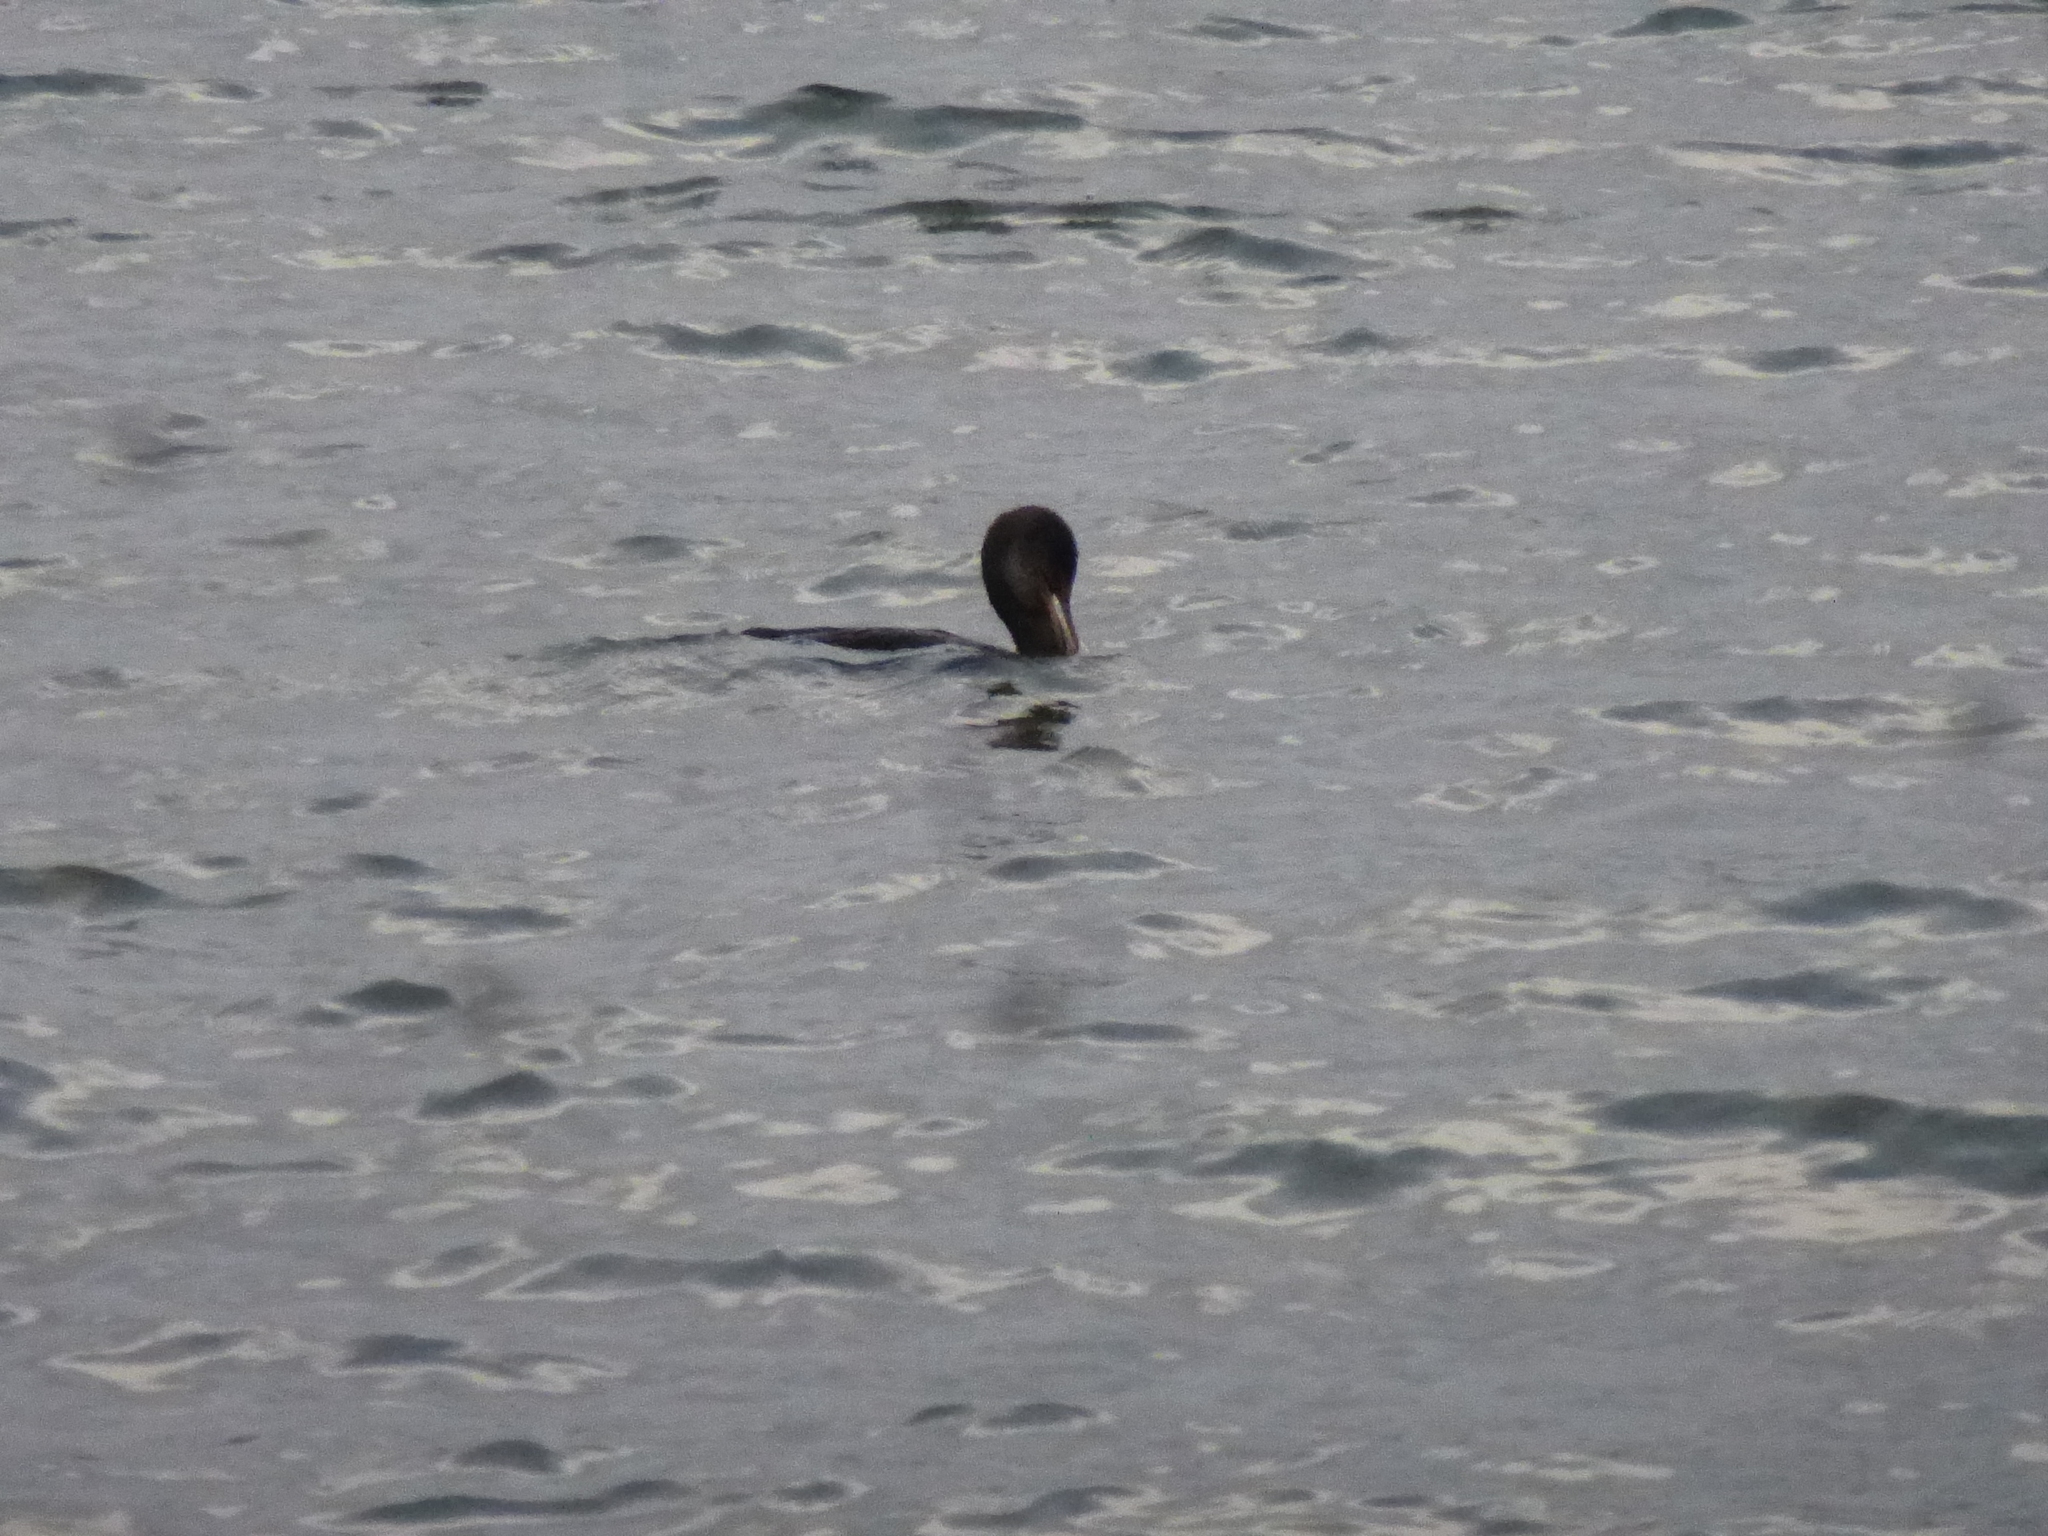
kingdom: Animalia
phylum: Chordata
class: Aves
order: Suliformes
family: Phalacrocoracidae
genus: Phalacrocorax
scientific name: Phalacrocorax auritus
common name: Double-crested cormorant
